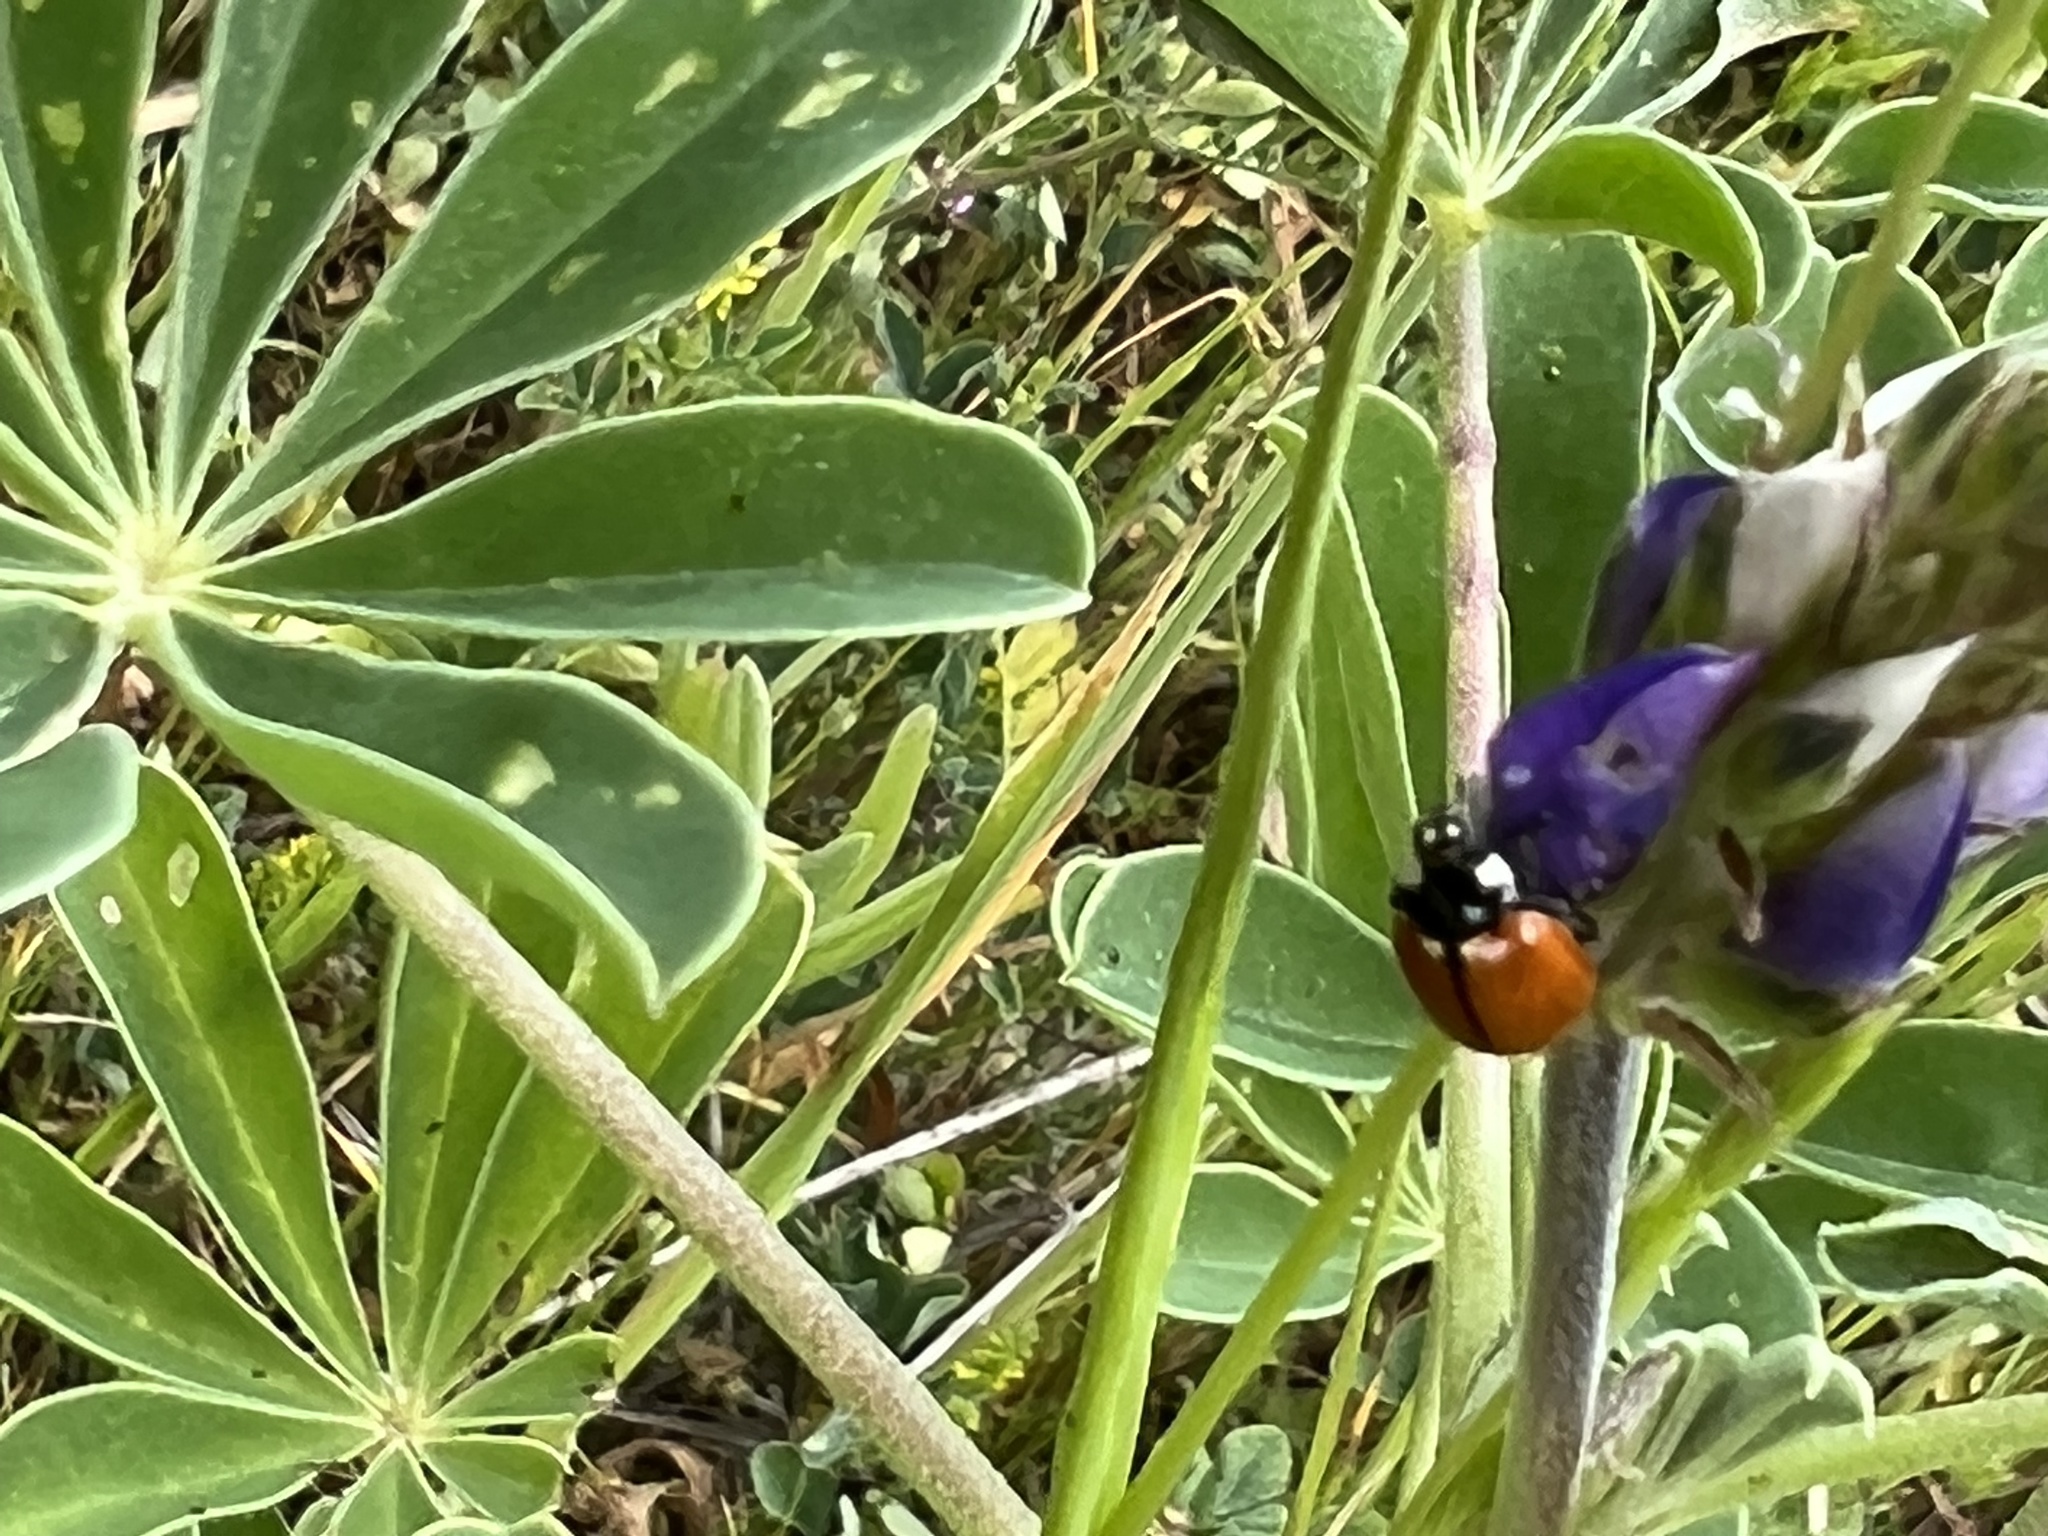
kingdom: Animalia
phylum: Arthropoda
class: Insecta
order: Coleoptera
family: Coccinellidae
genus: Coccinella
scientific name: Coccinella californica
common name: Lady beetle
